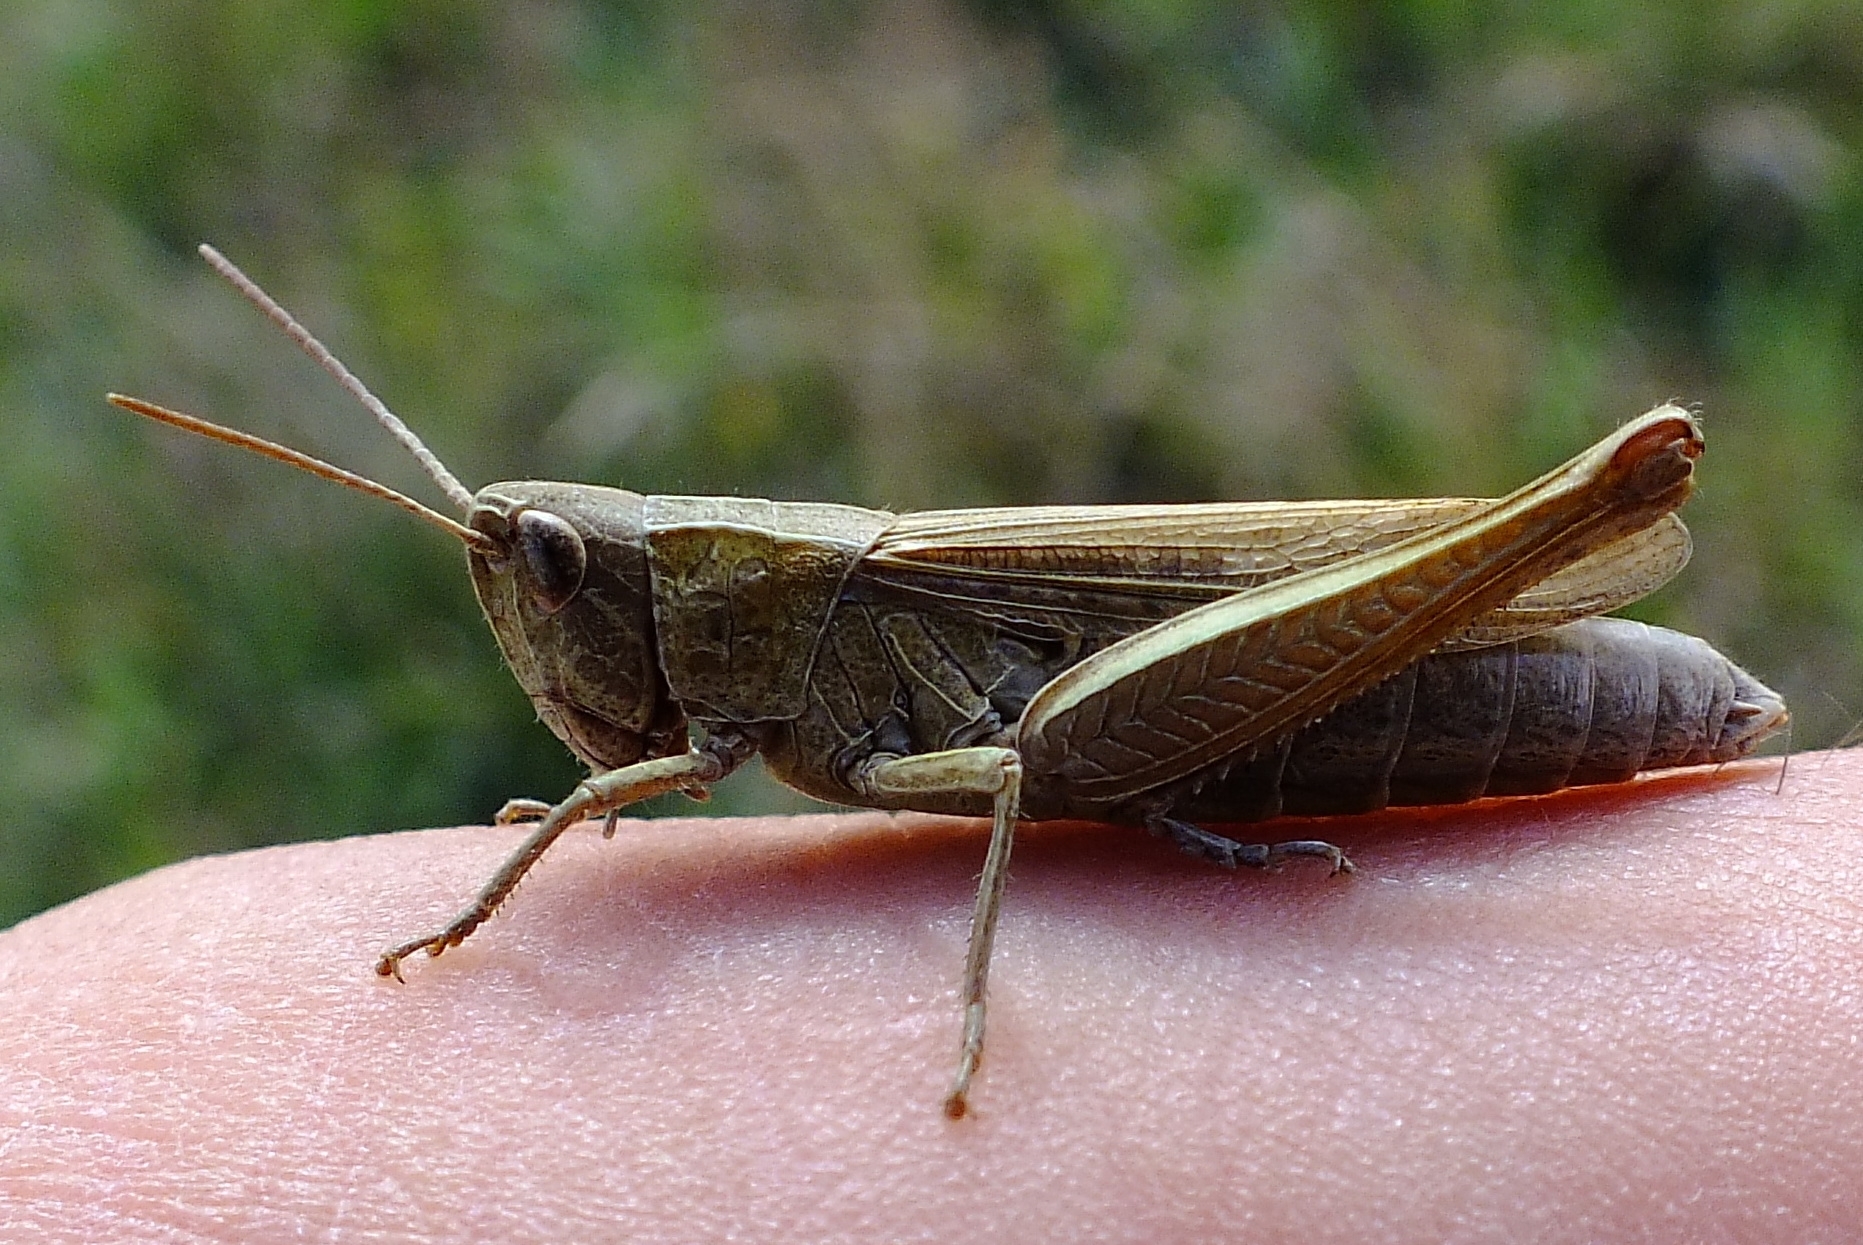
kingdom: Animalia
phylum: Arthropoda
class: Insecta
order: Orthoptera
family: Acrididae
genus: Chorthippus
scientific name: Chorthippus dorsatus
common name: Steppe grasshopper
